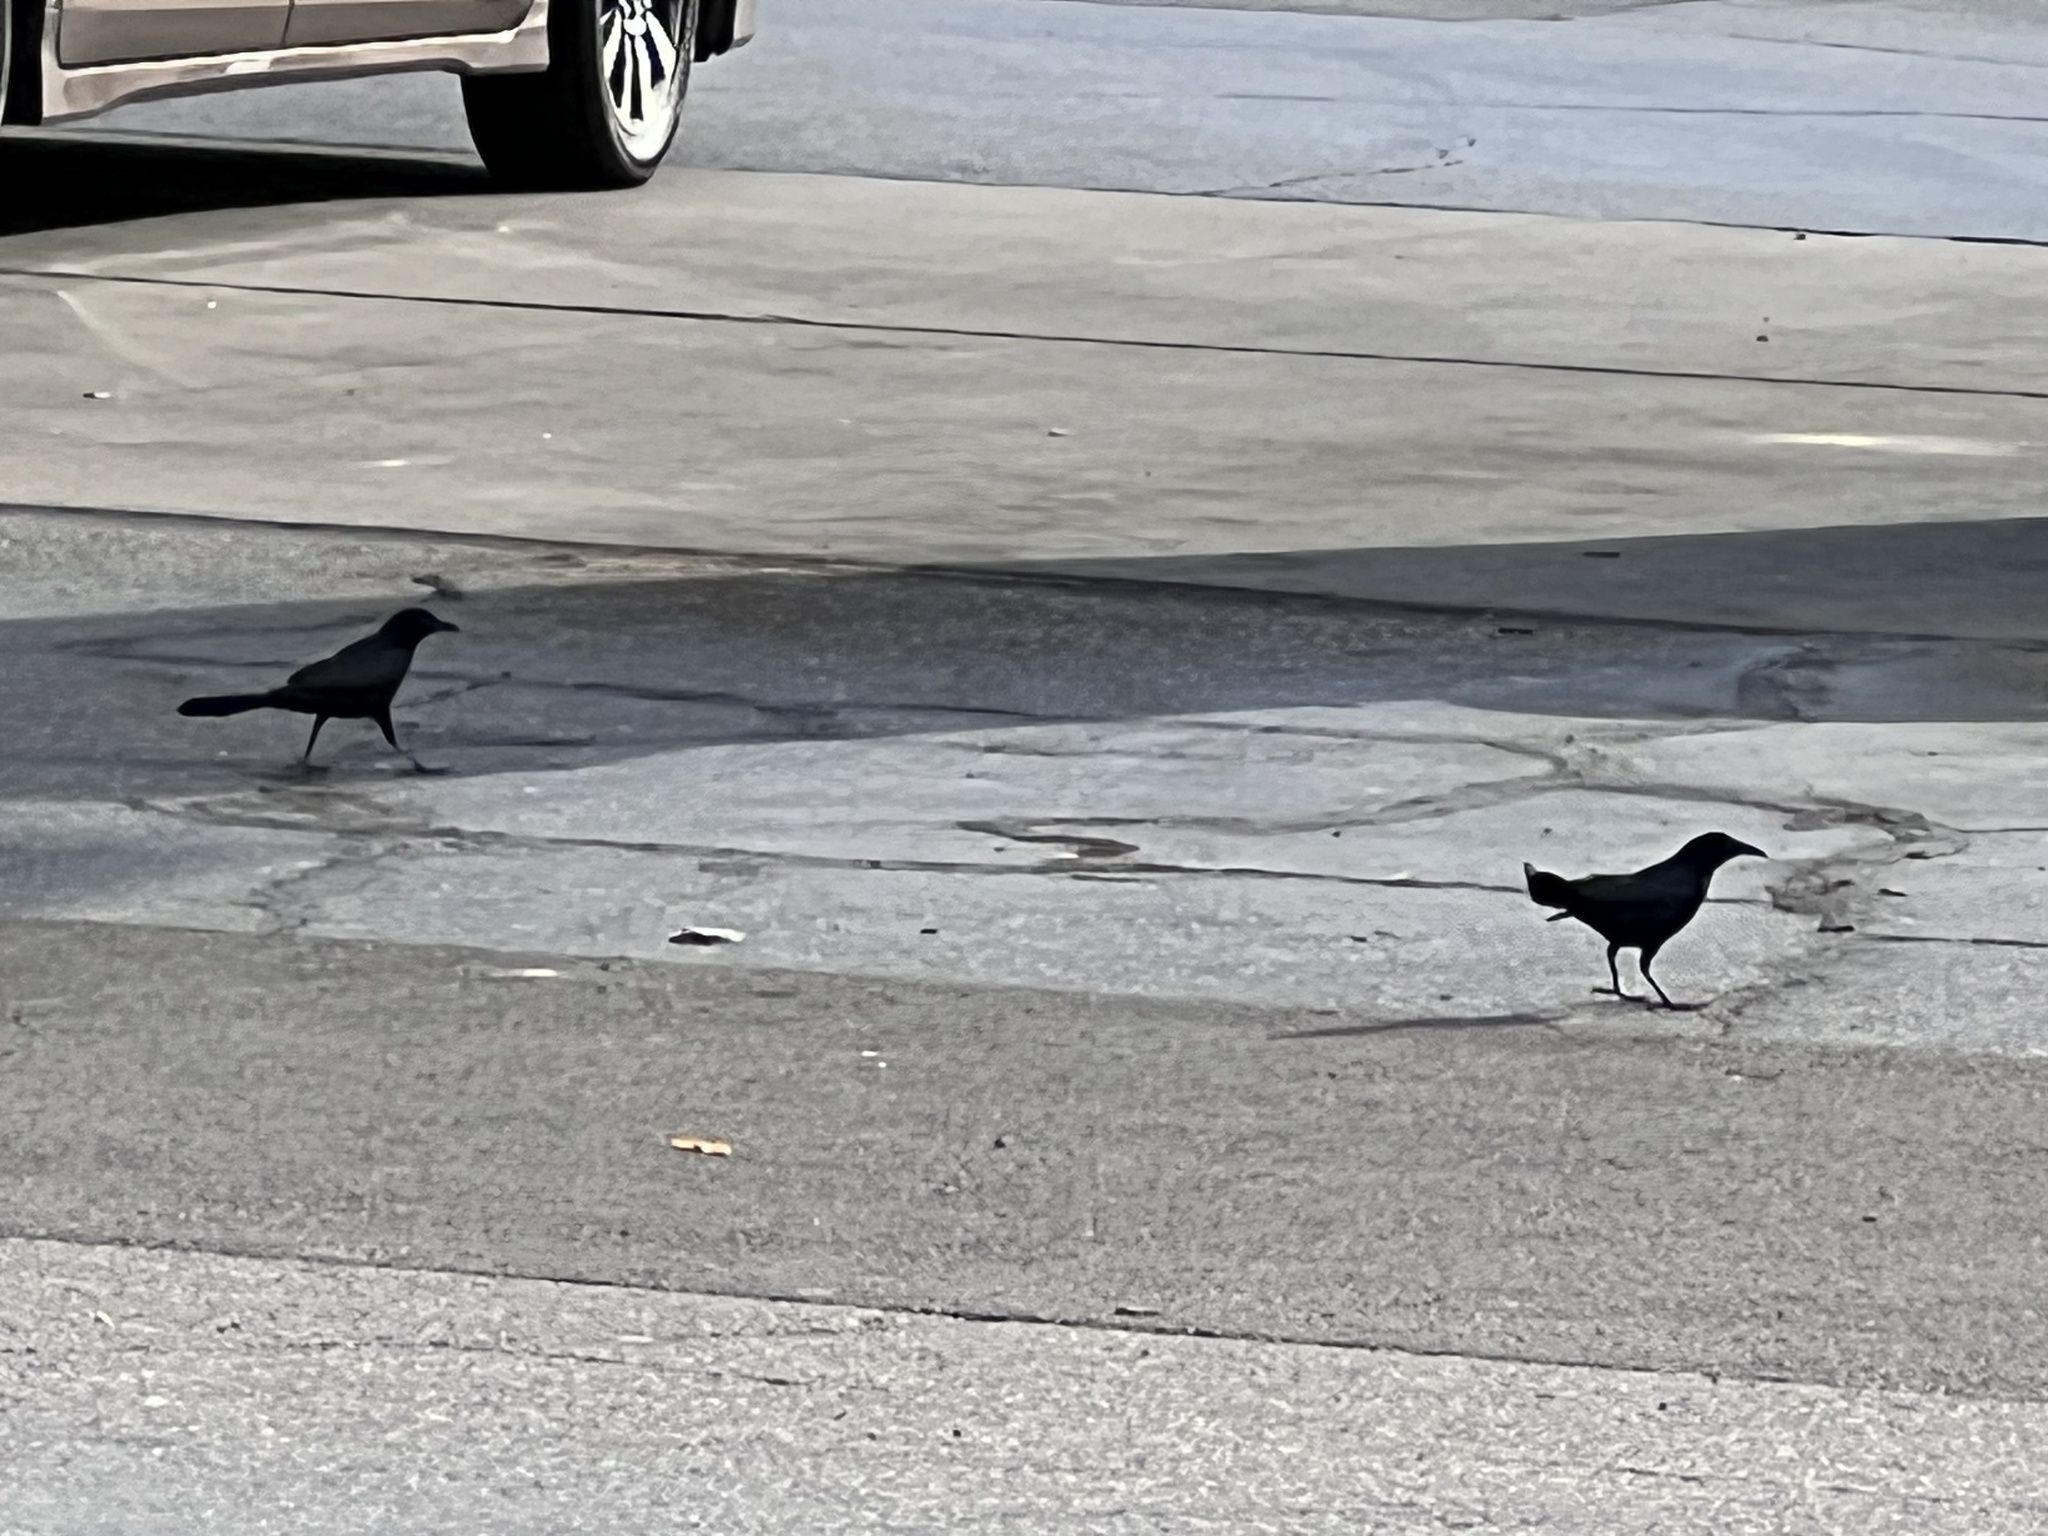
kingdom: Animalia
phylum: Chordata
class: Aves
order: Passeriformes
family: Icteridae
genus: Quiscalus
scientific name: Quiscalus mexicanus
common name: Great-tailed grackle
